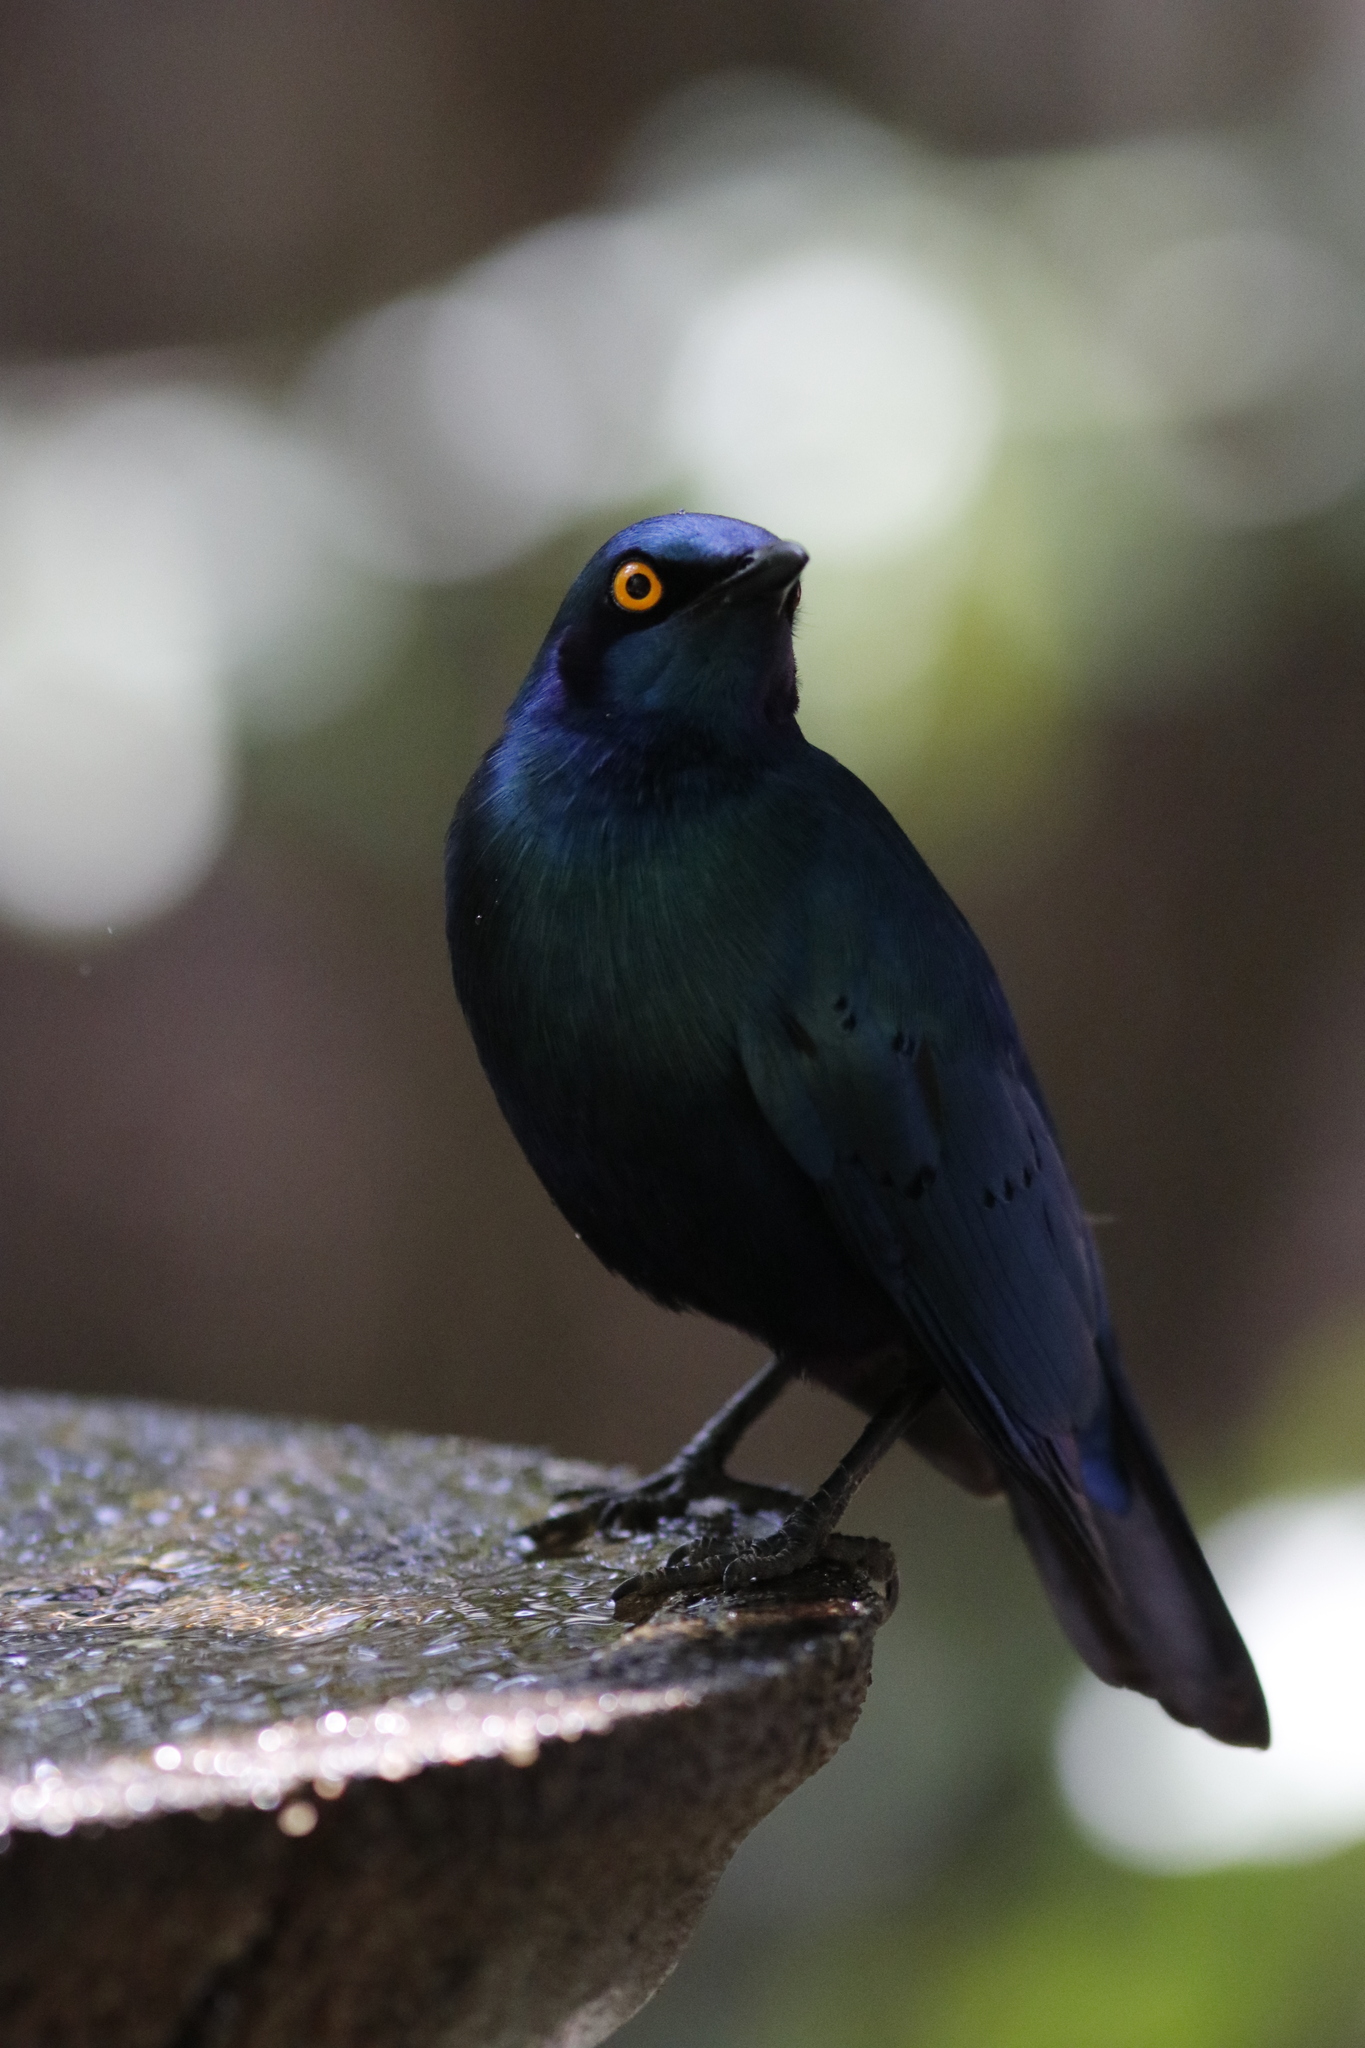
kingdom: Animalia
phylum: Chordata
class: Aves
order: Passeriformes
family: Sturnidae
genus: Lamprotornis
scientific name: Lamprotornis chalybaeus
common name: Greater blue-eared starling
